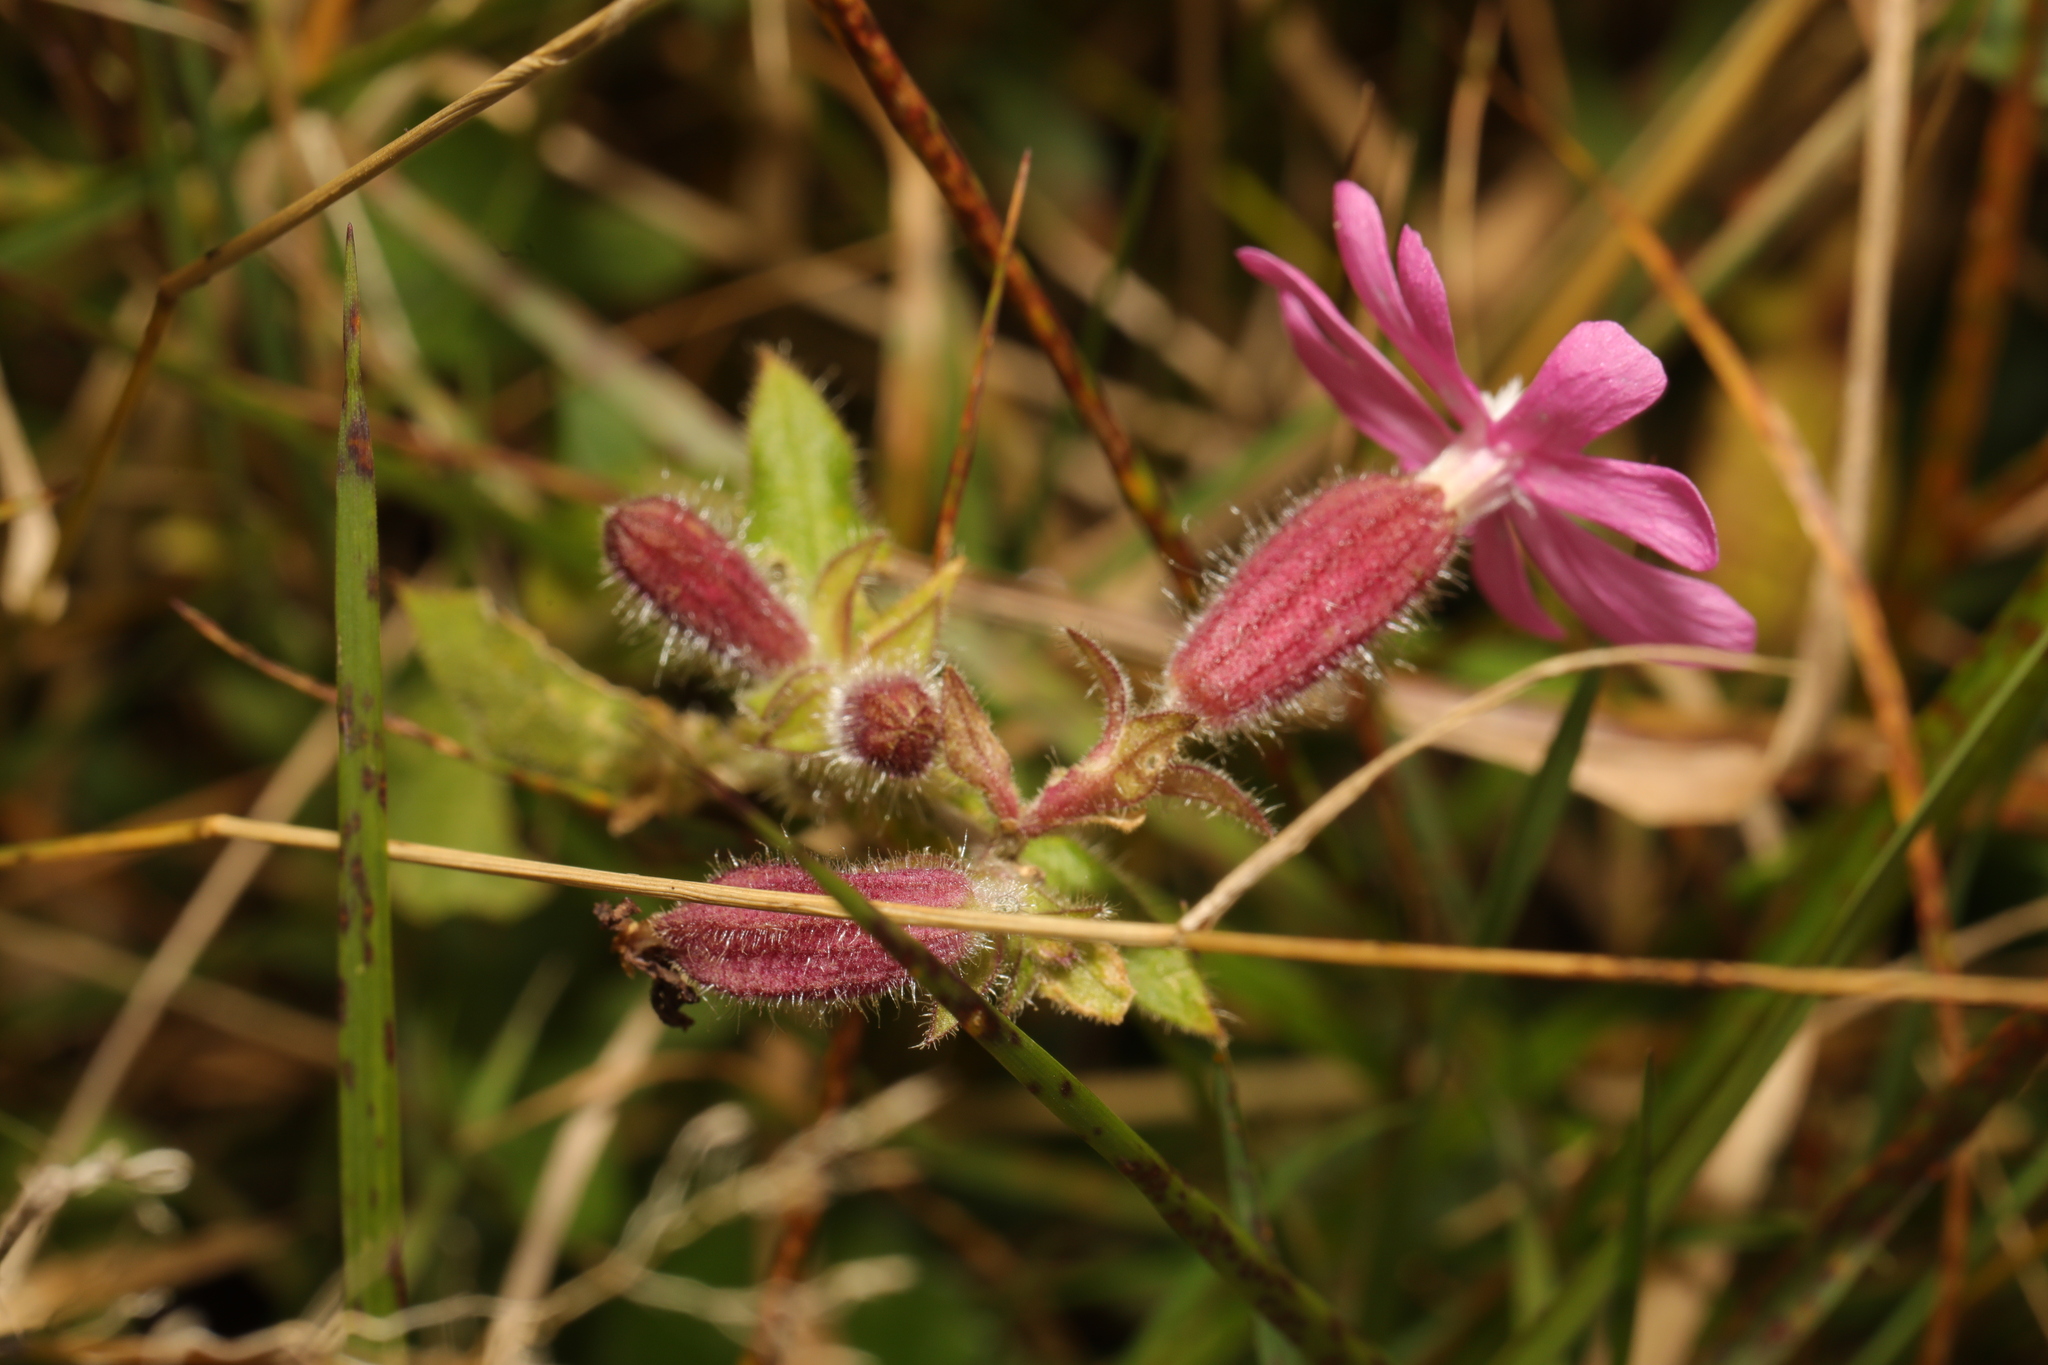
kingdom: Plantae
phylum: Tracheophyta
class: Magnoliopsida
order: Caryophyllales
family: Caryophyllaceae
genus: Silene
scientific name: Silene dioica
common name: Red campion
